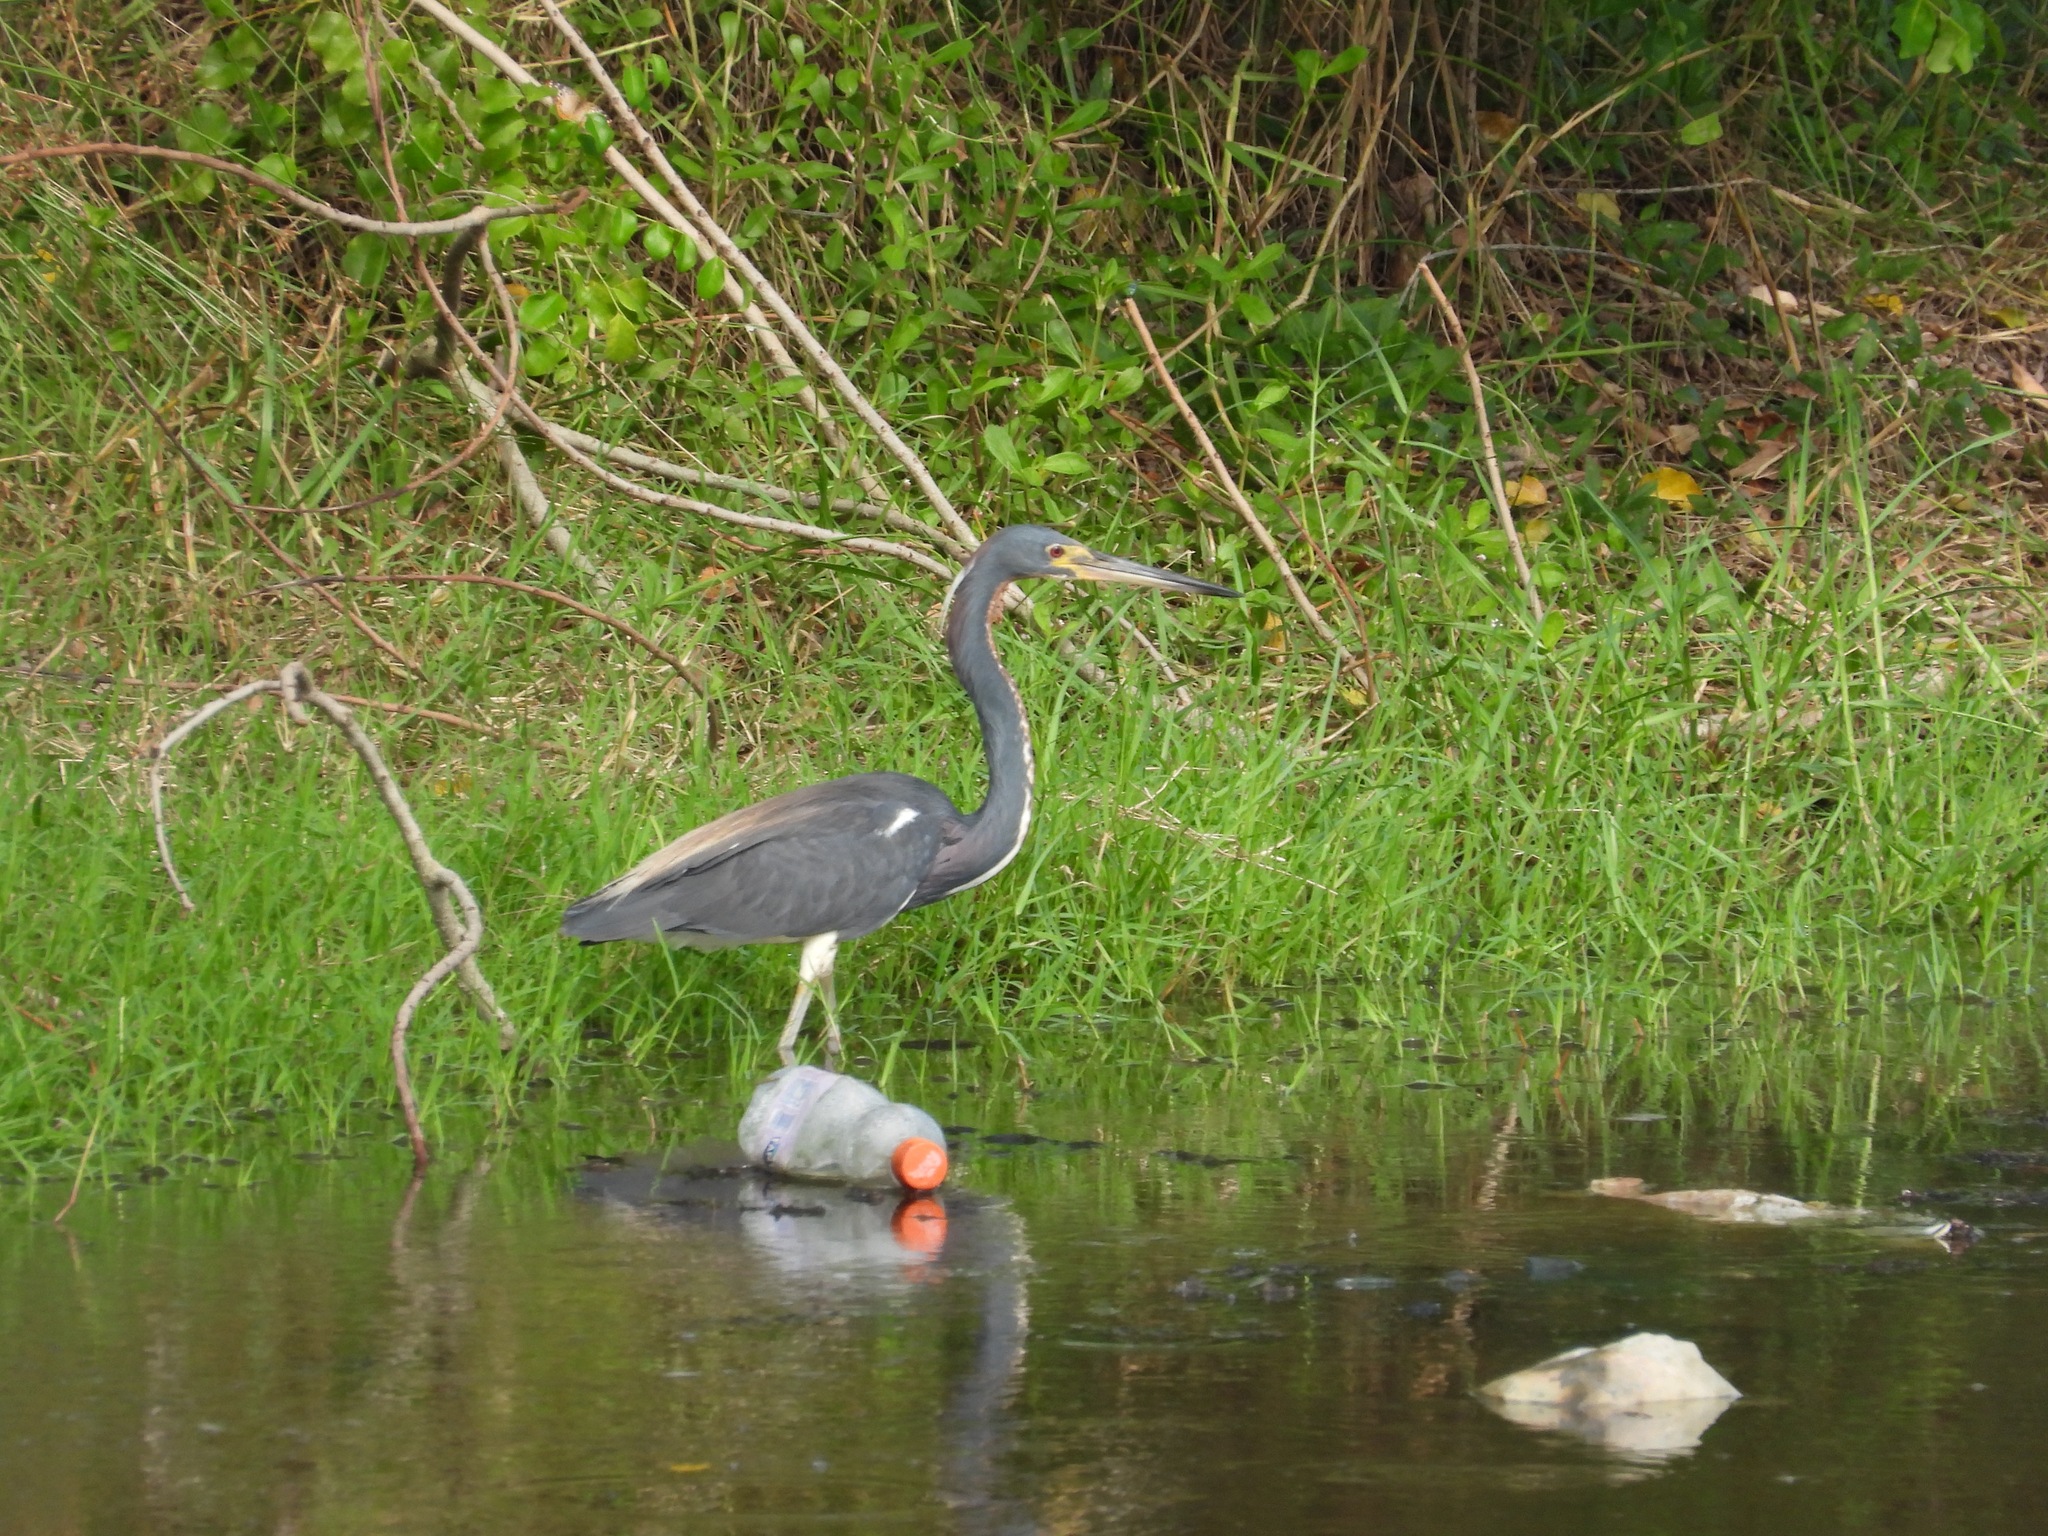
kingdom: Animalia
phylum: Chordata
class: Aves
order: Pelecaniformes
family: Ardeidae
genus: Egretta
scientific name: Egretta tricolor
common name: Tricolored heron
